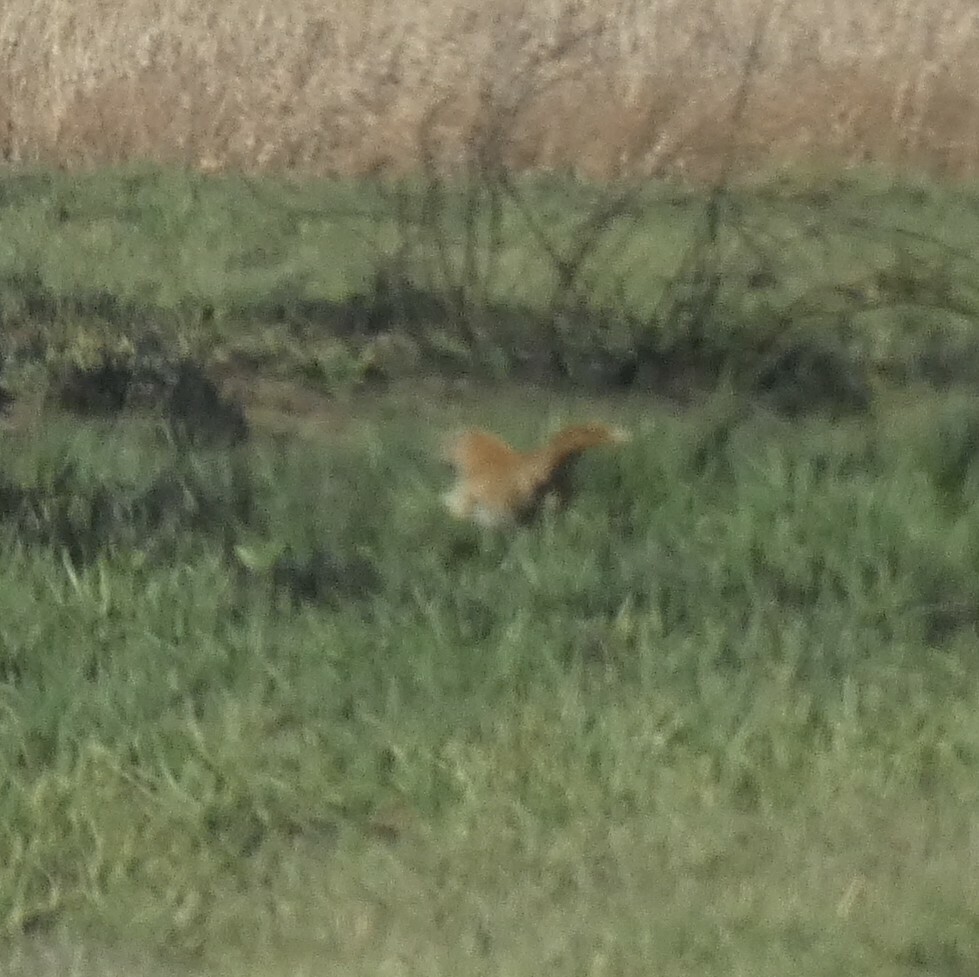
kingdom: Animalia
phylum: Chordata
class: Mammalia
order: Carnivora
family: Herpestidae
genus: Cynictis
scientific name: Cynictis penicillata
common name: Yellow mongoose
